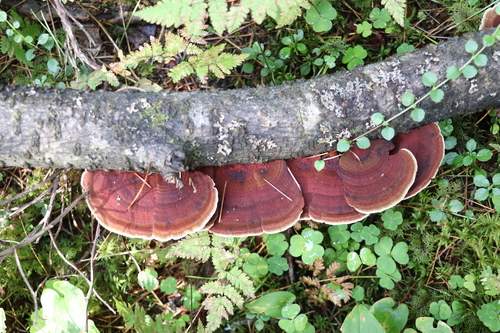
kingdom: Fungi
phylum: Basidiomycota
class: Agaricomycetes
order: Polyporales
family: Polyporaceae
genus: Daedaleopsis
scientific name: Daedaleopsis tricolor
